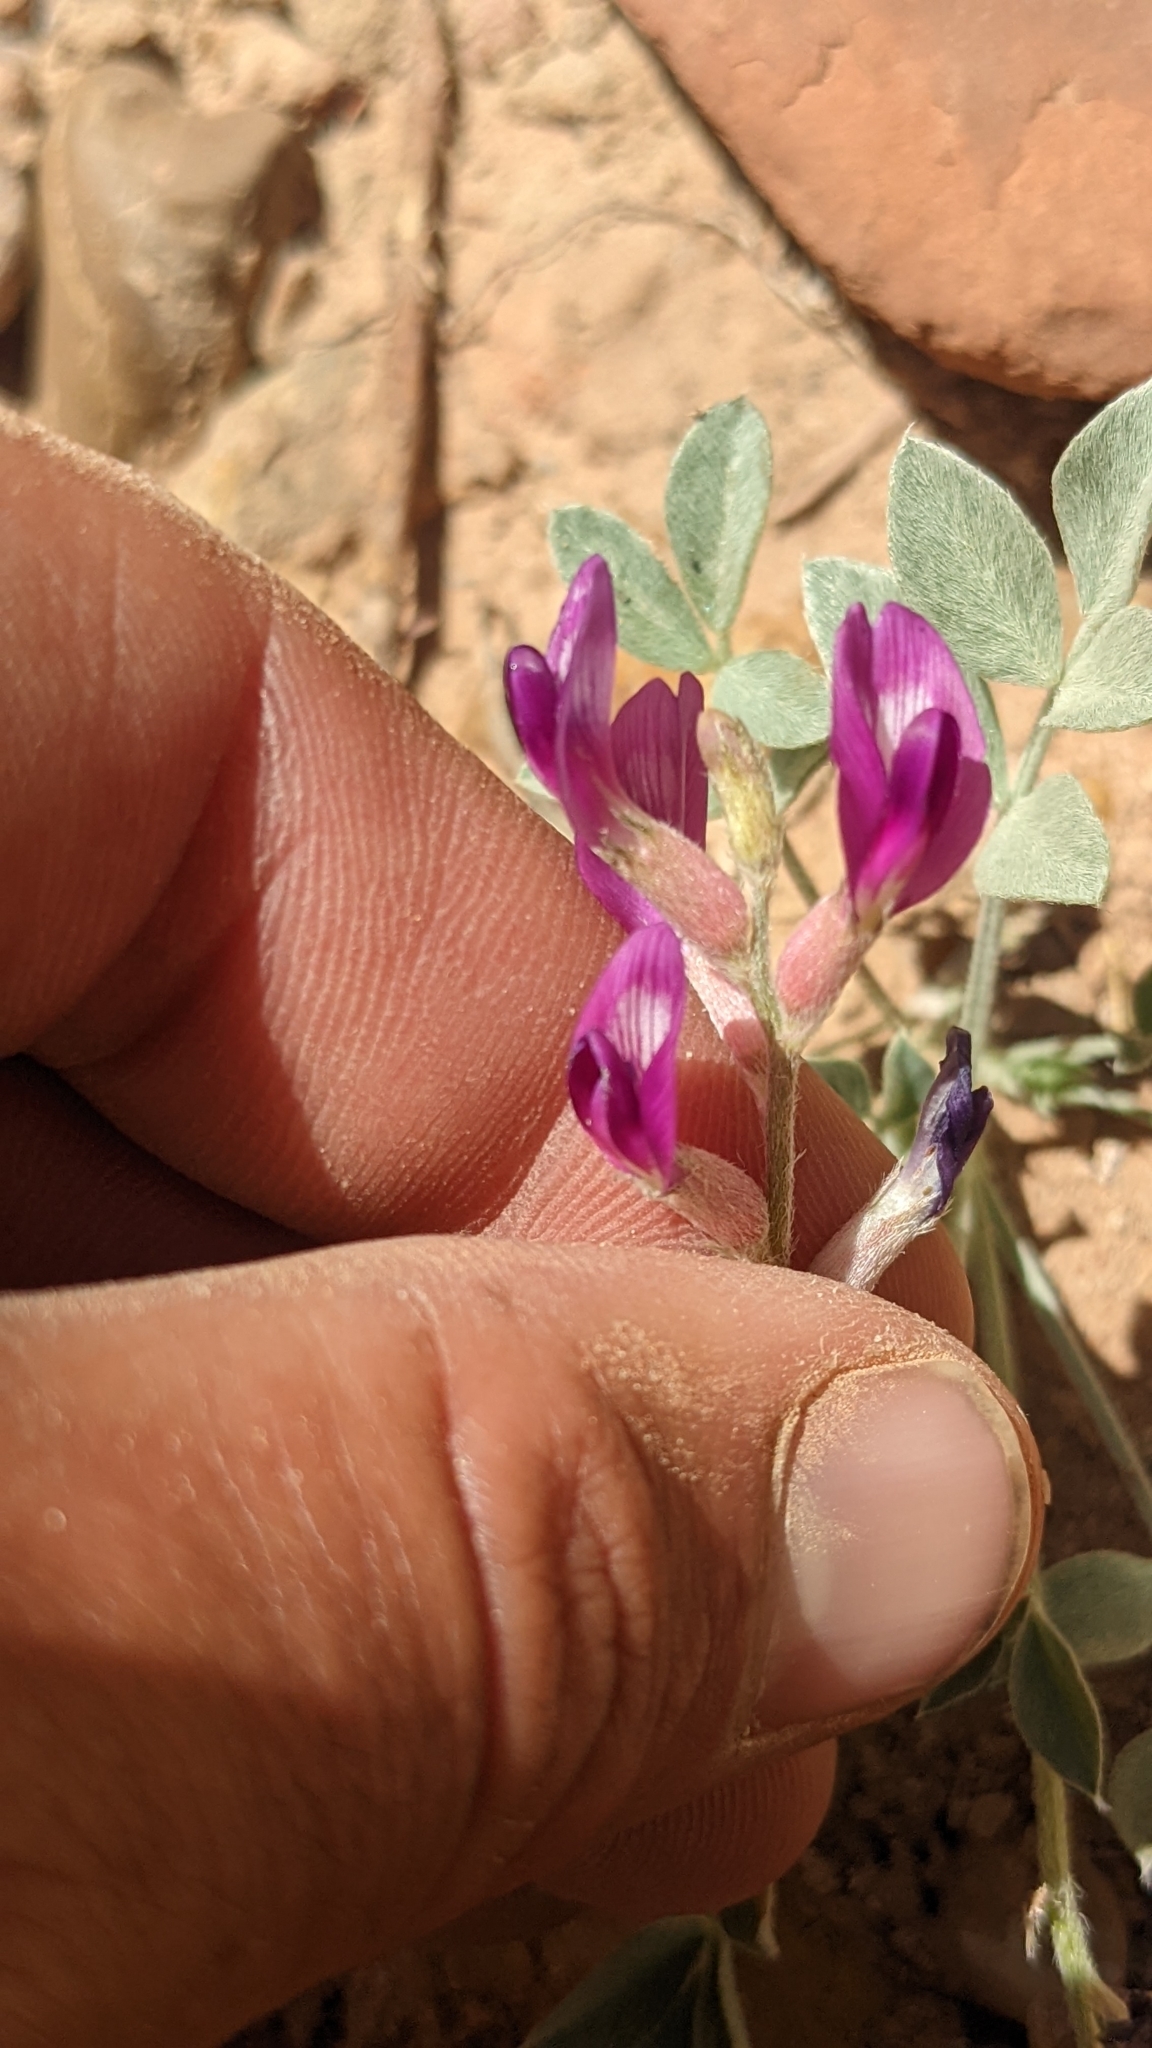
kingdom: Plantae
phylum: Tracheophyta
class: Magnoliopsida
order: Fabales
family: Fabaceae
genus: Astragalus
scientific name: Astragalus amphioxys
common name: Crescent milk-vetch
